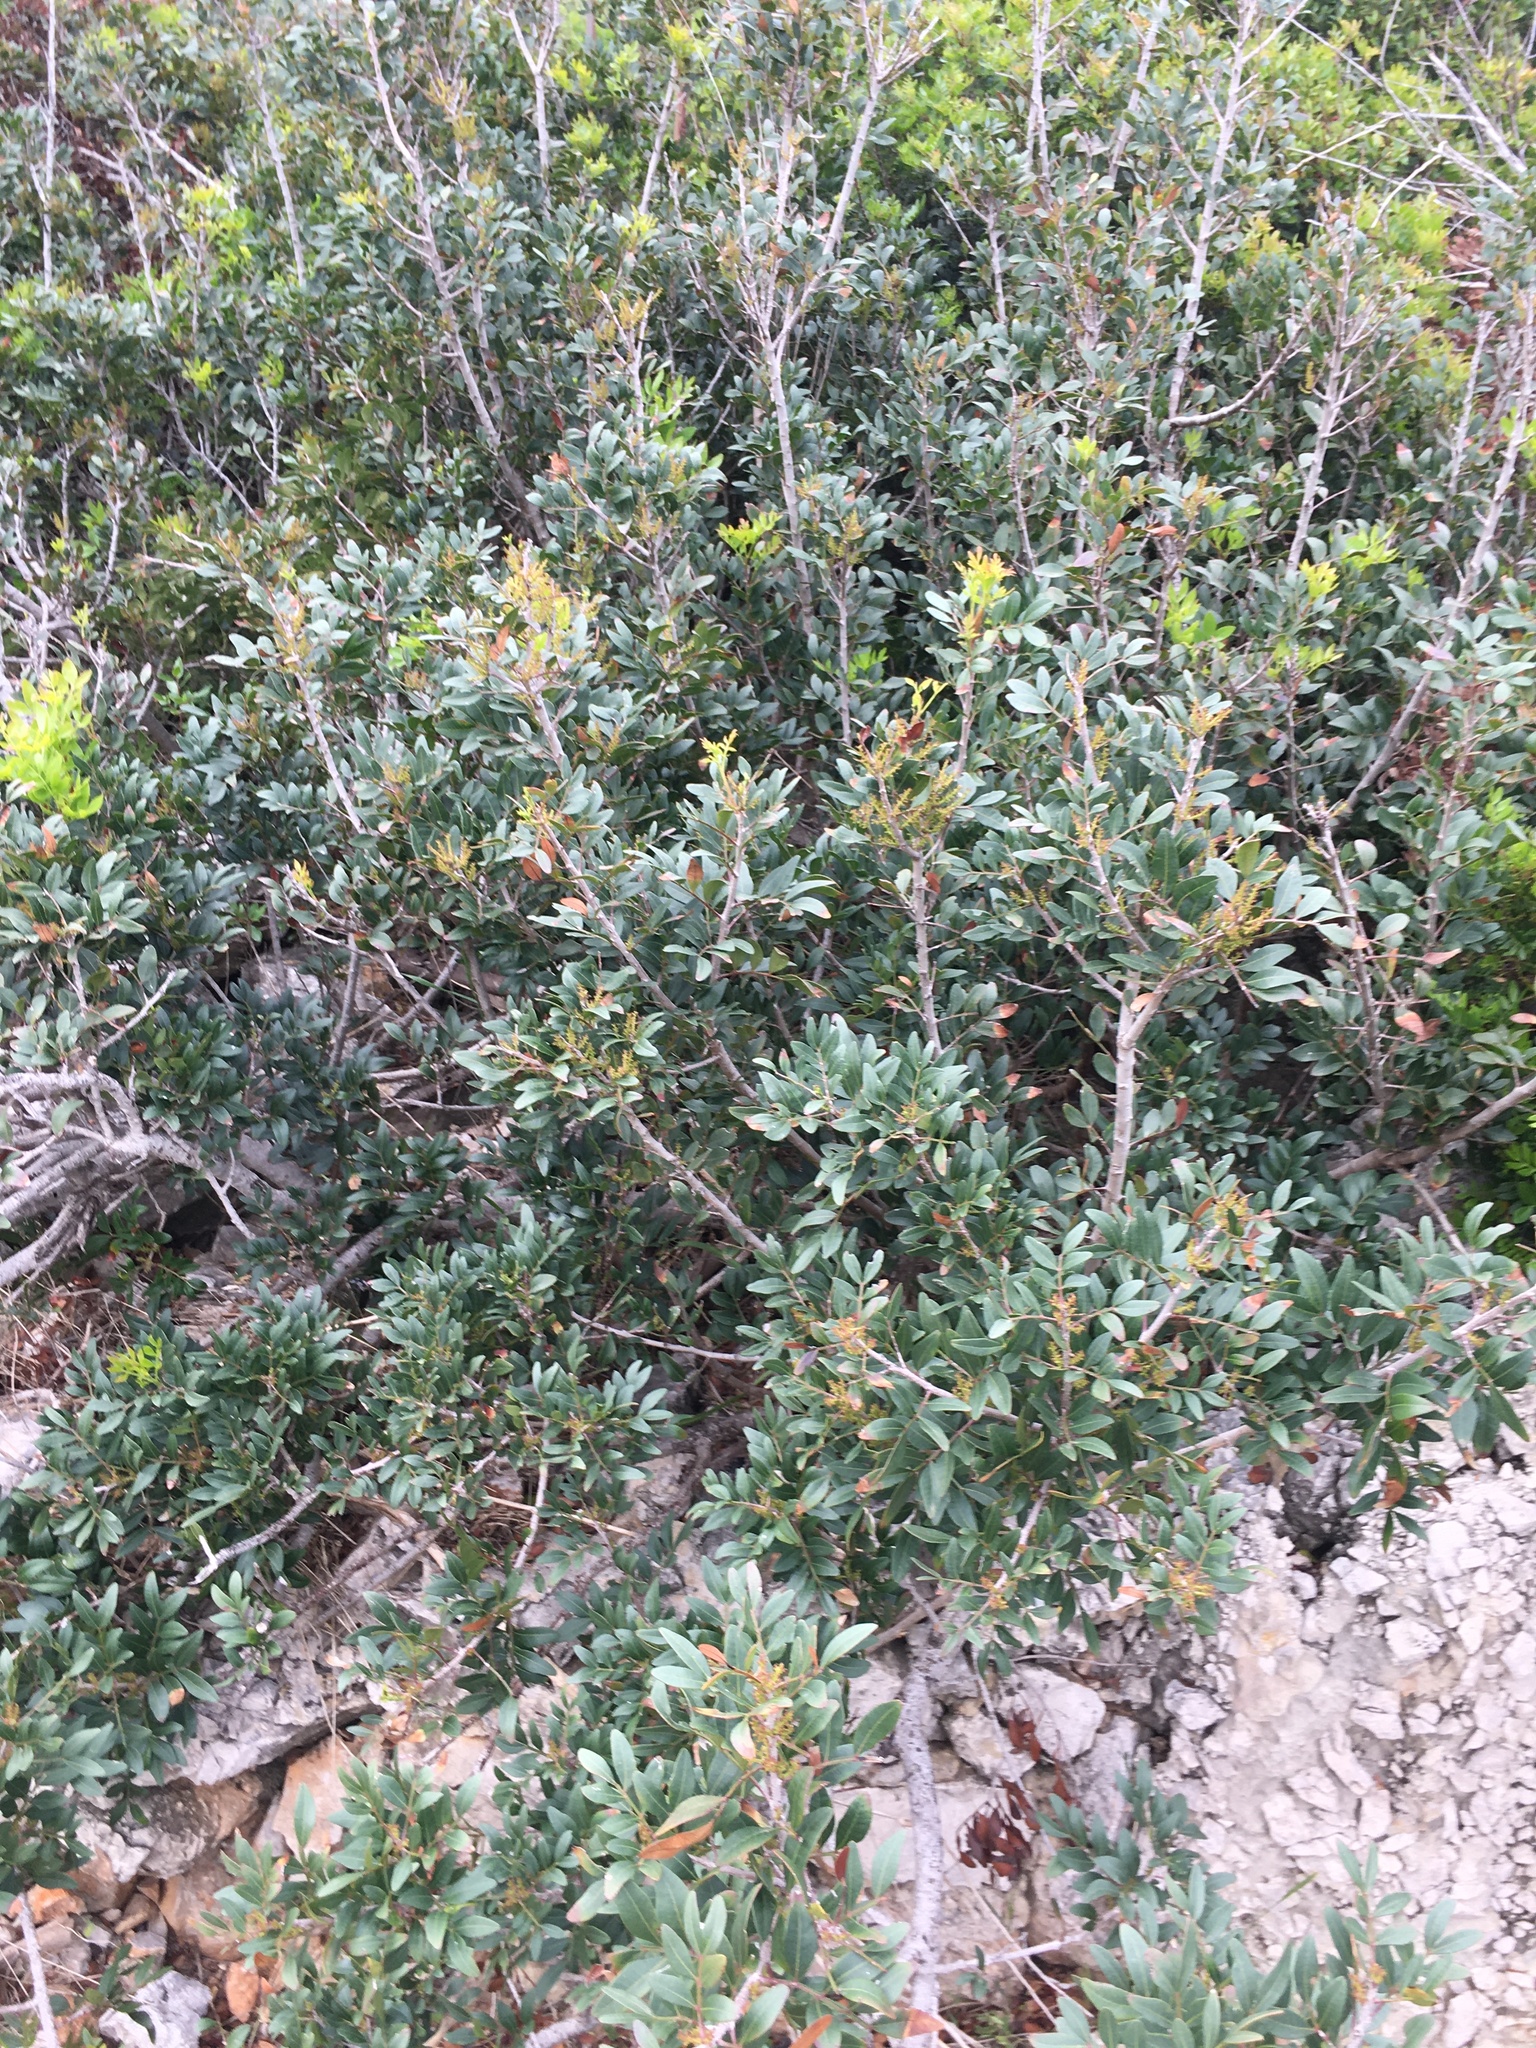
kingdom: Plantae
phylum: Tracheophyta
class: Magnoliopsida
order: Sapindales
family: Anacardiaceae
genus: Pistacia
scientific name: Pistacia lentiscus
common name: Lentisk
